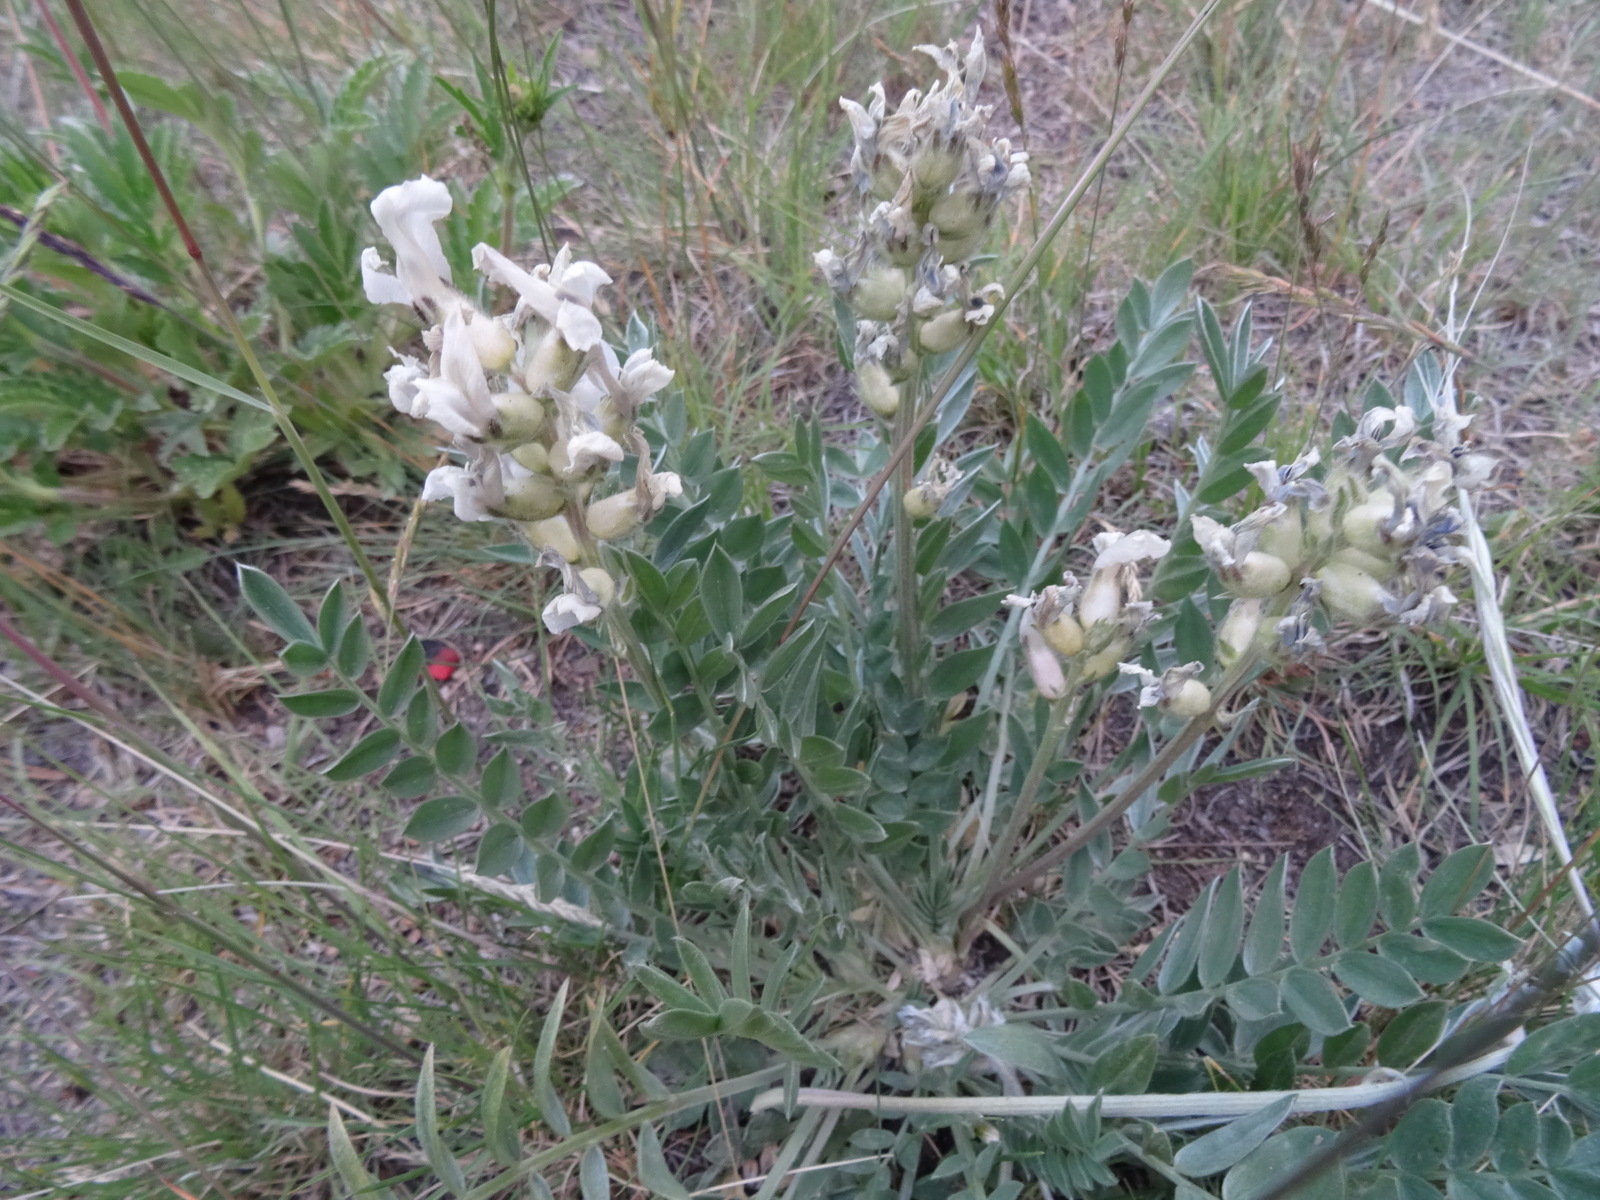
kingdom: Plantae
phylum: Tracheophyta
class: Magnoliopsida
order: Fabales
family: Fabaceae
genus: Oxytropis
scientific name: Oxytropis sericea
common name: Silky locoweed
